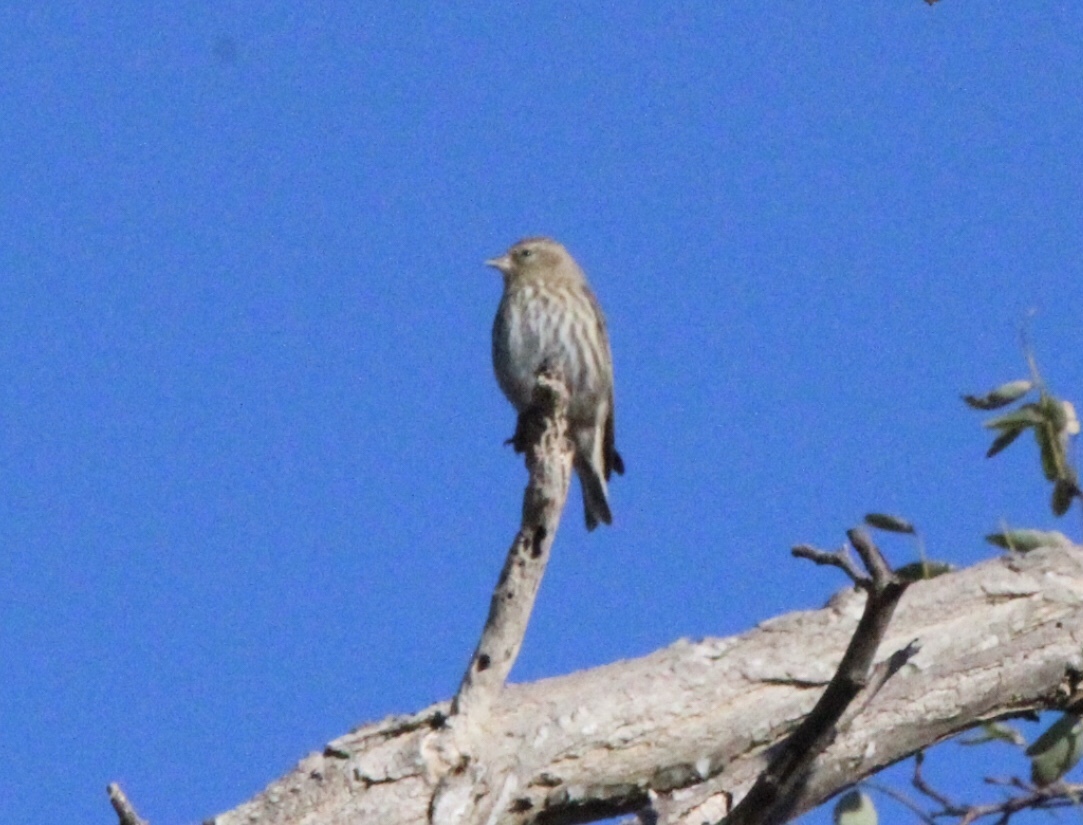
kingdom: Animalia
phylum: Chordata
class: Aves
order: Passeriformes
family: Fringillidae
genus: Spinus
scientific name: Spinus pinus
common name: Pine siskin
